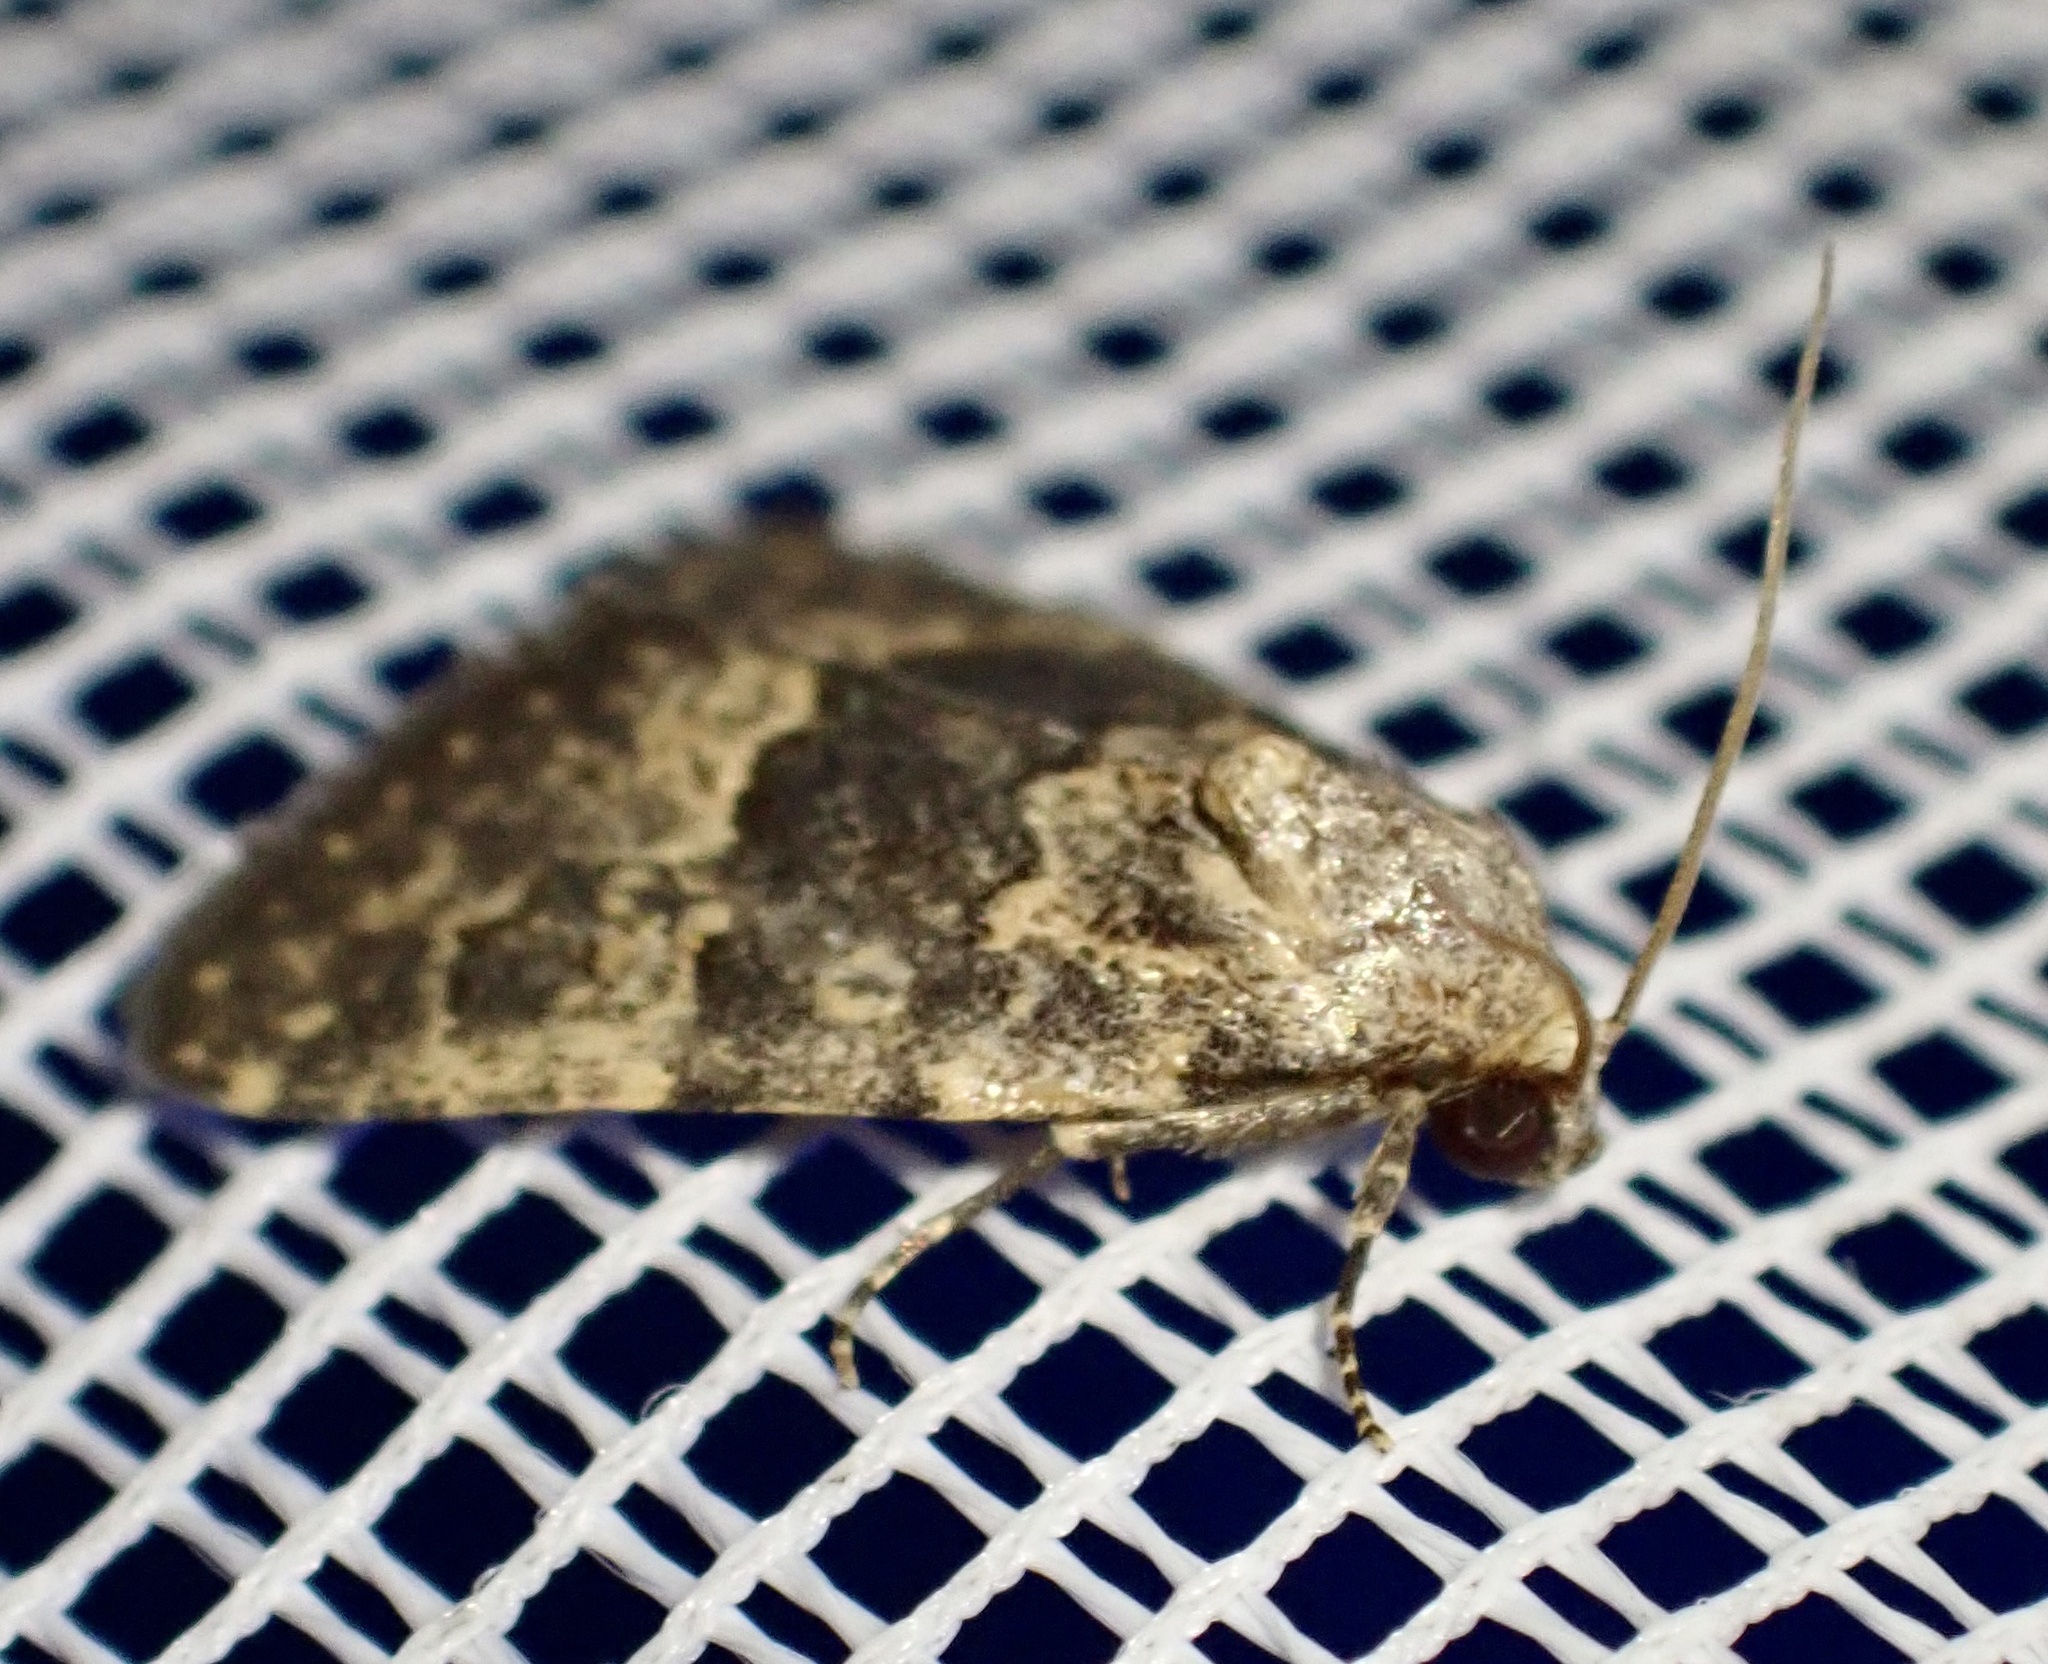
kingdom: Animalia
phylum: Arthropoda
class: Insecta
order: Lepidoptera
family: Noctuidae
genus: Duhemia
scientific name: Duhemia variegata
